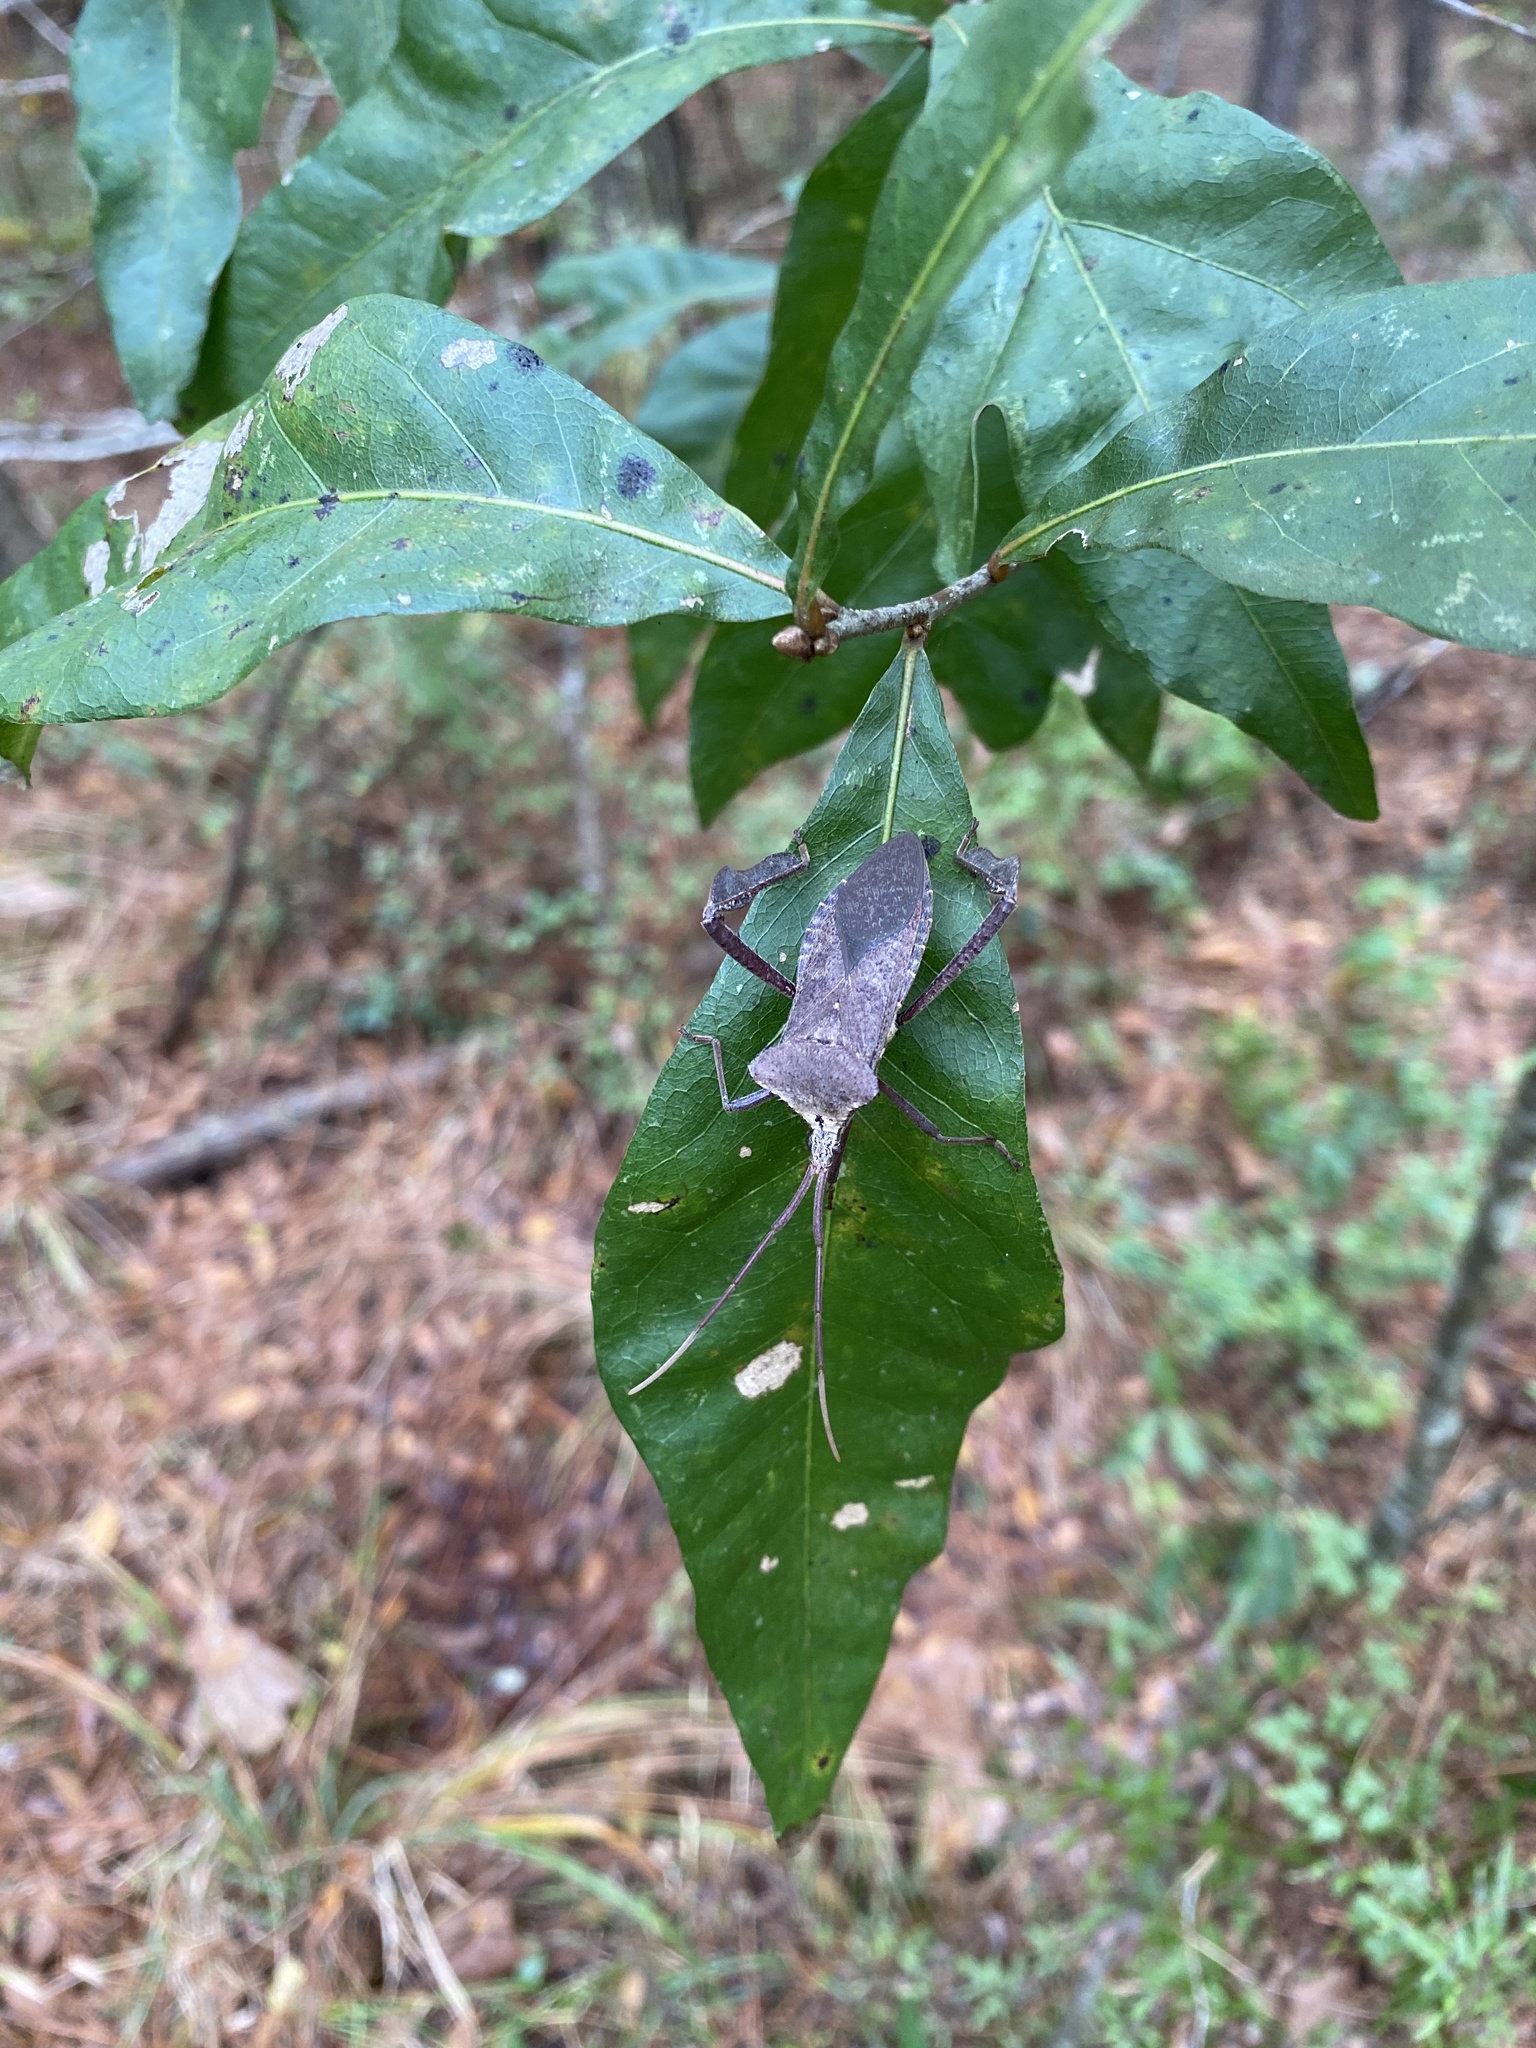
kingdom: Animalia
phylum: Arthropoda
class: Insecta
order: Hemiptera
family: Coreidae
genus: Acanthocephala
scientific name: Acanthocephala declivis
